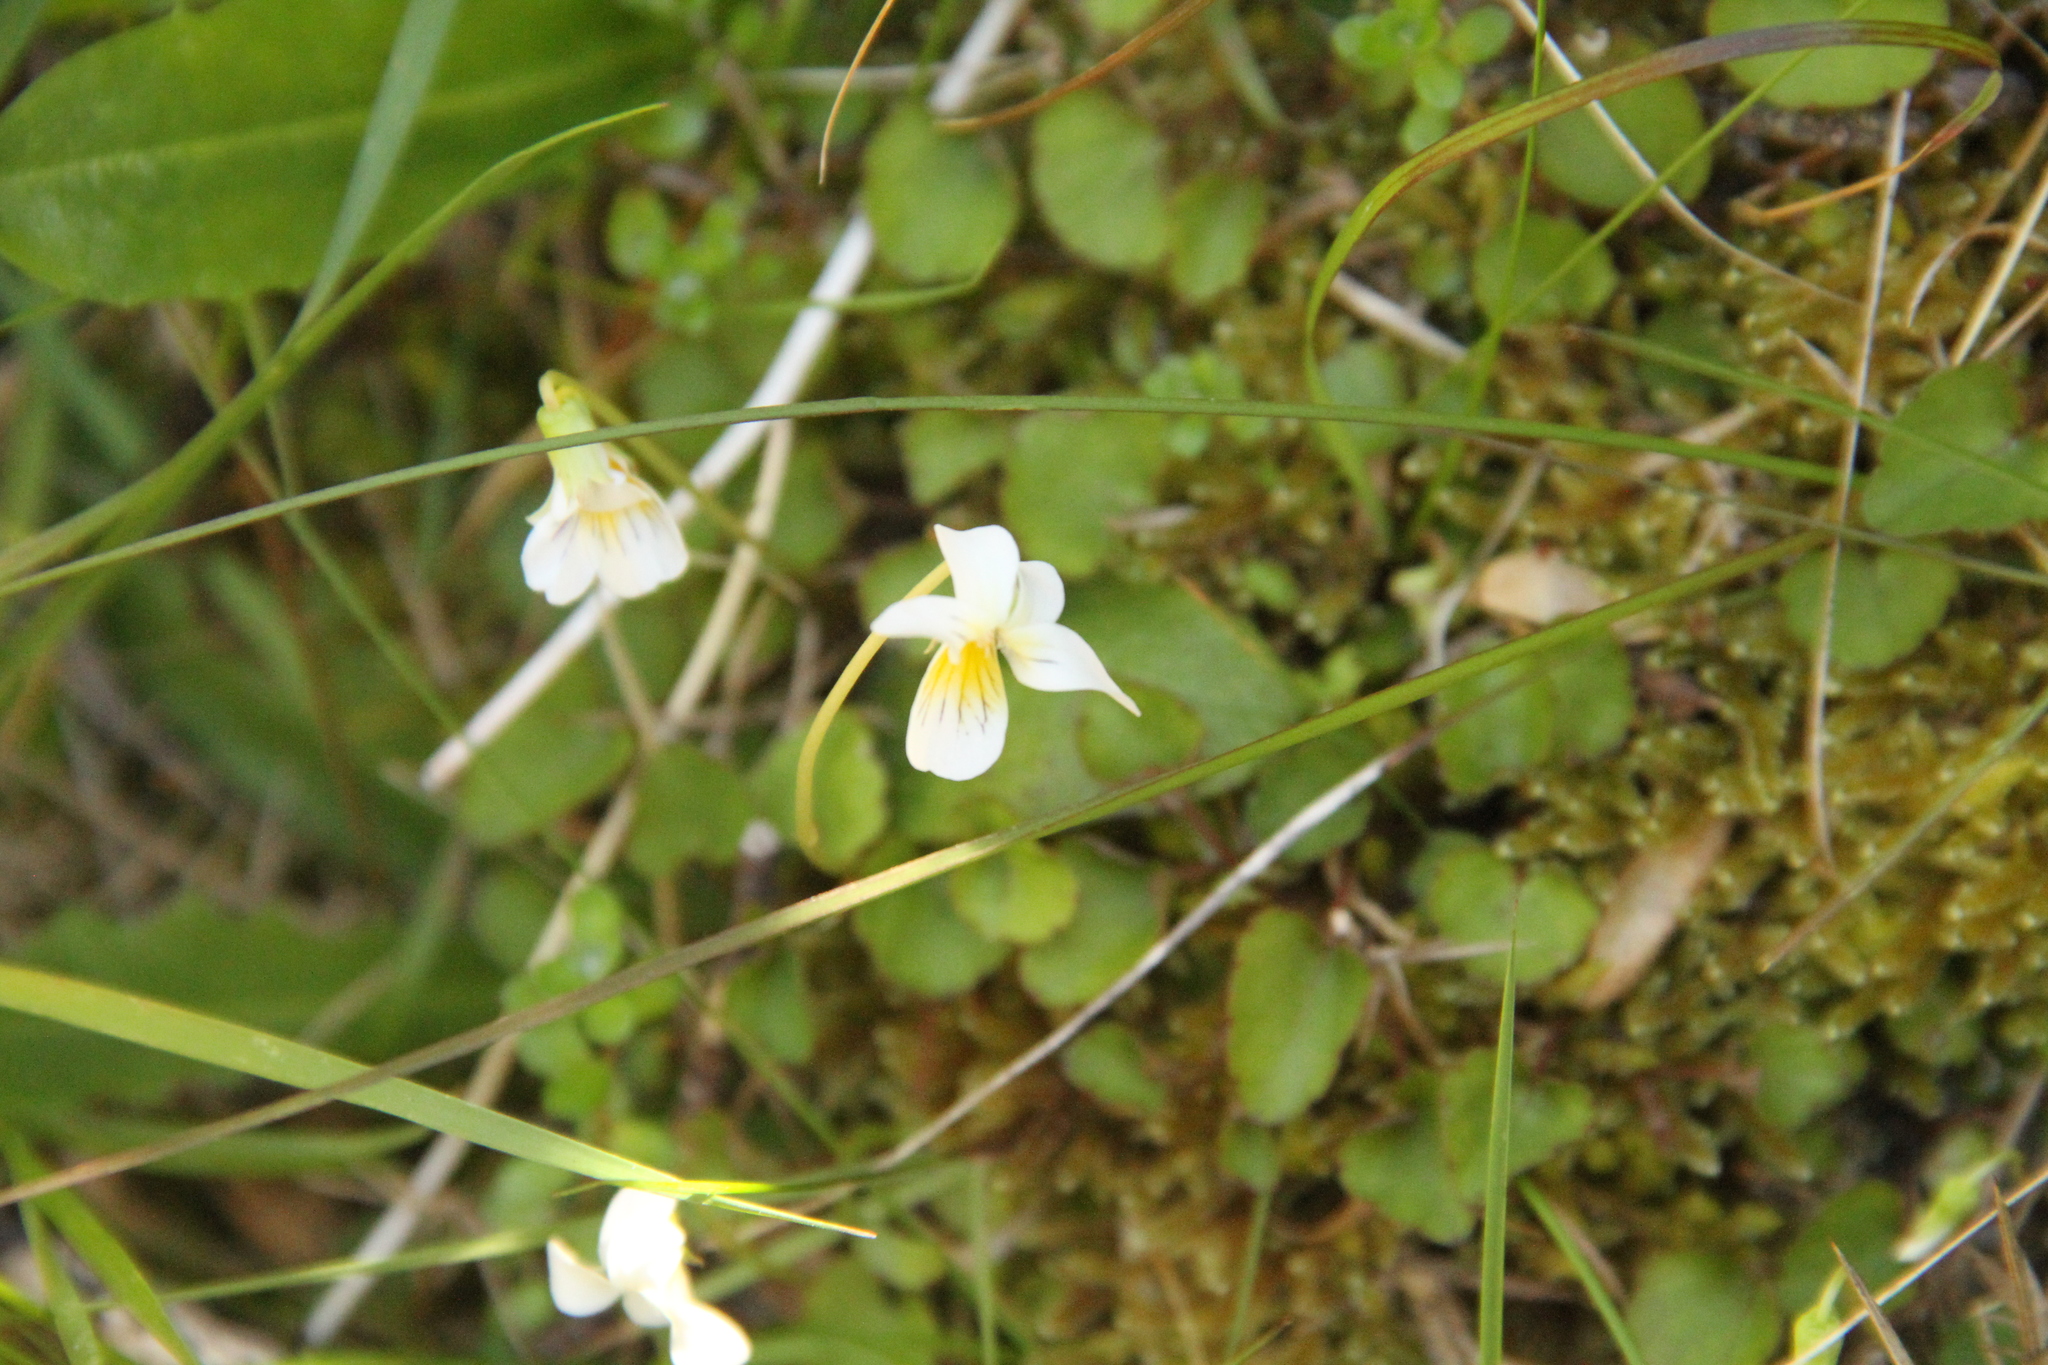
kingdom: Plantae
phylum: Tracheophyta
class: Magnoliopsida
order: Malpighiales
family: Violaceae
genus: Viola
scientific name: Viola filicaulis
